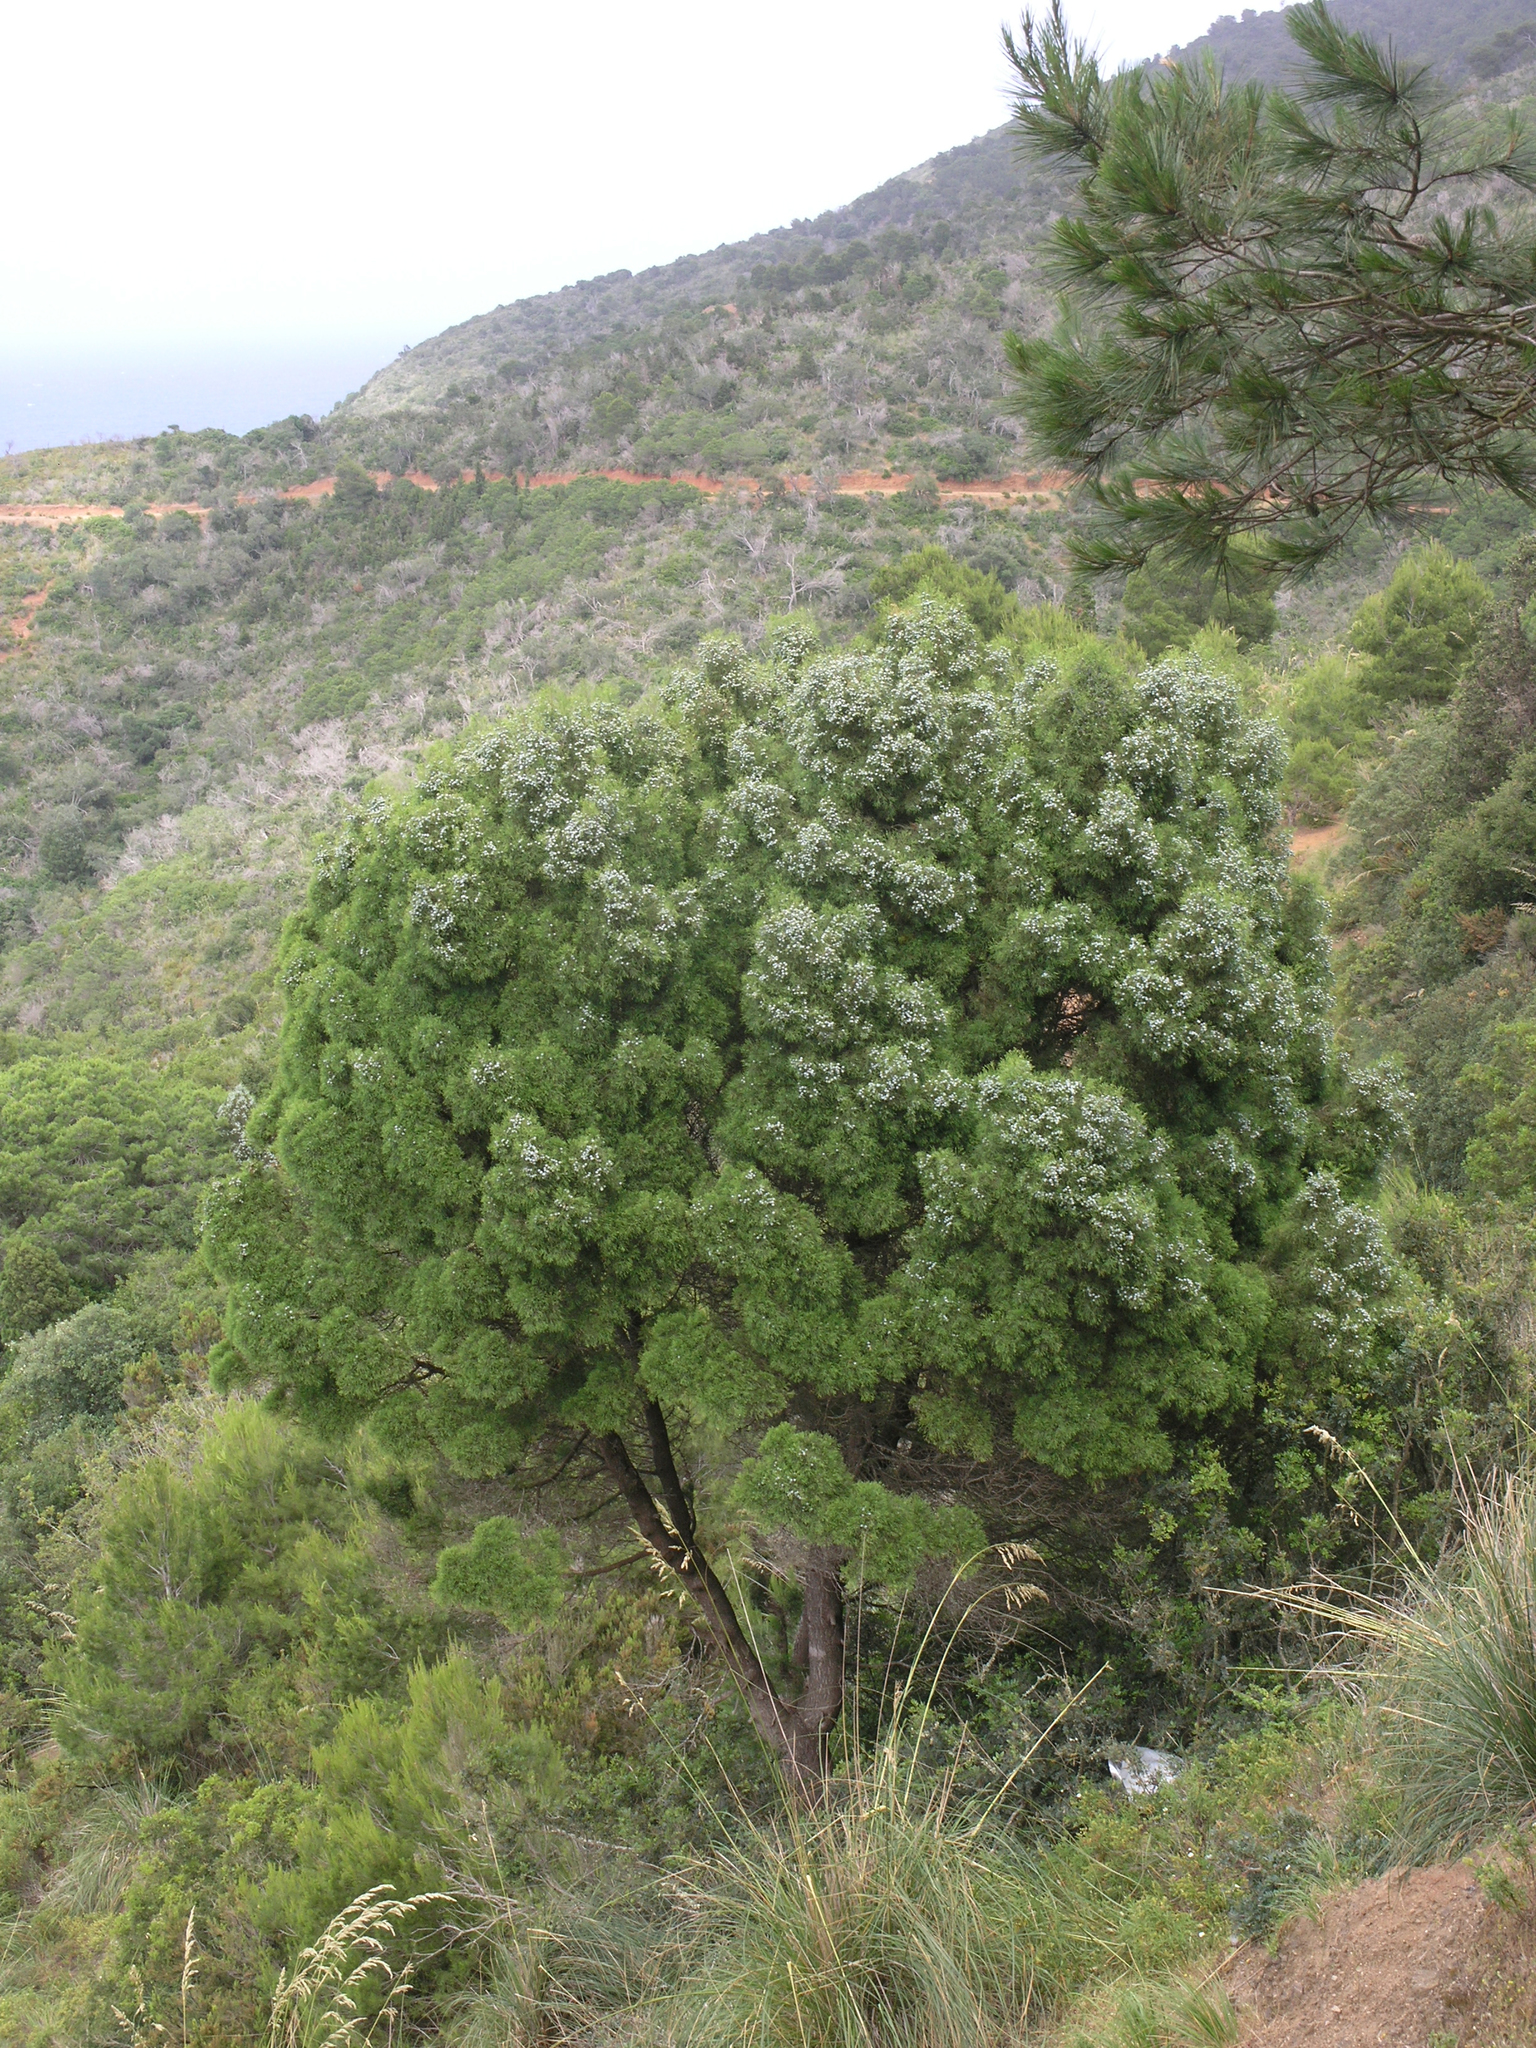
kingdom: Plantae
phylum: Tracheophyta
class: Pinopsida
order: Pinales
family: Cupressaceae
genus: Tetraclinis
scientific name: Tetraclinis articulata
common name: Sandarac
